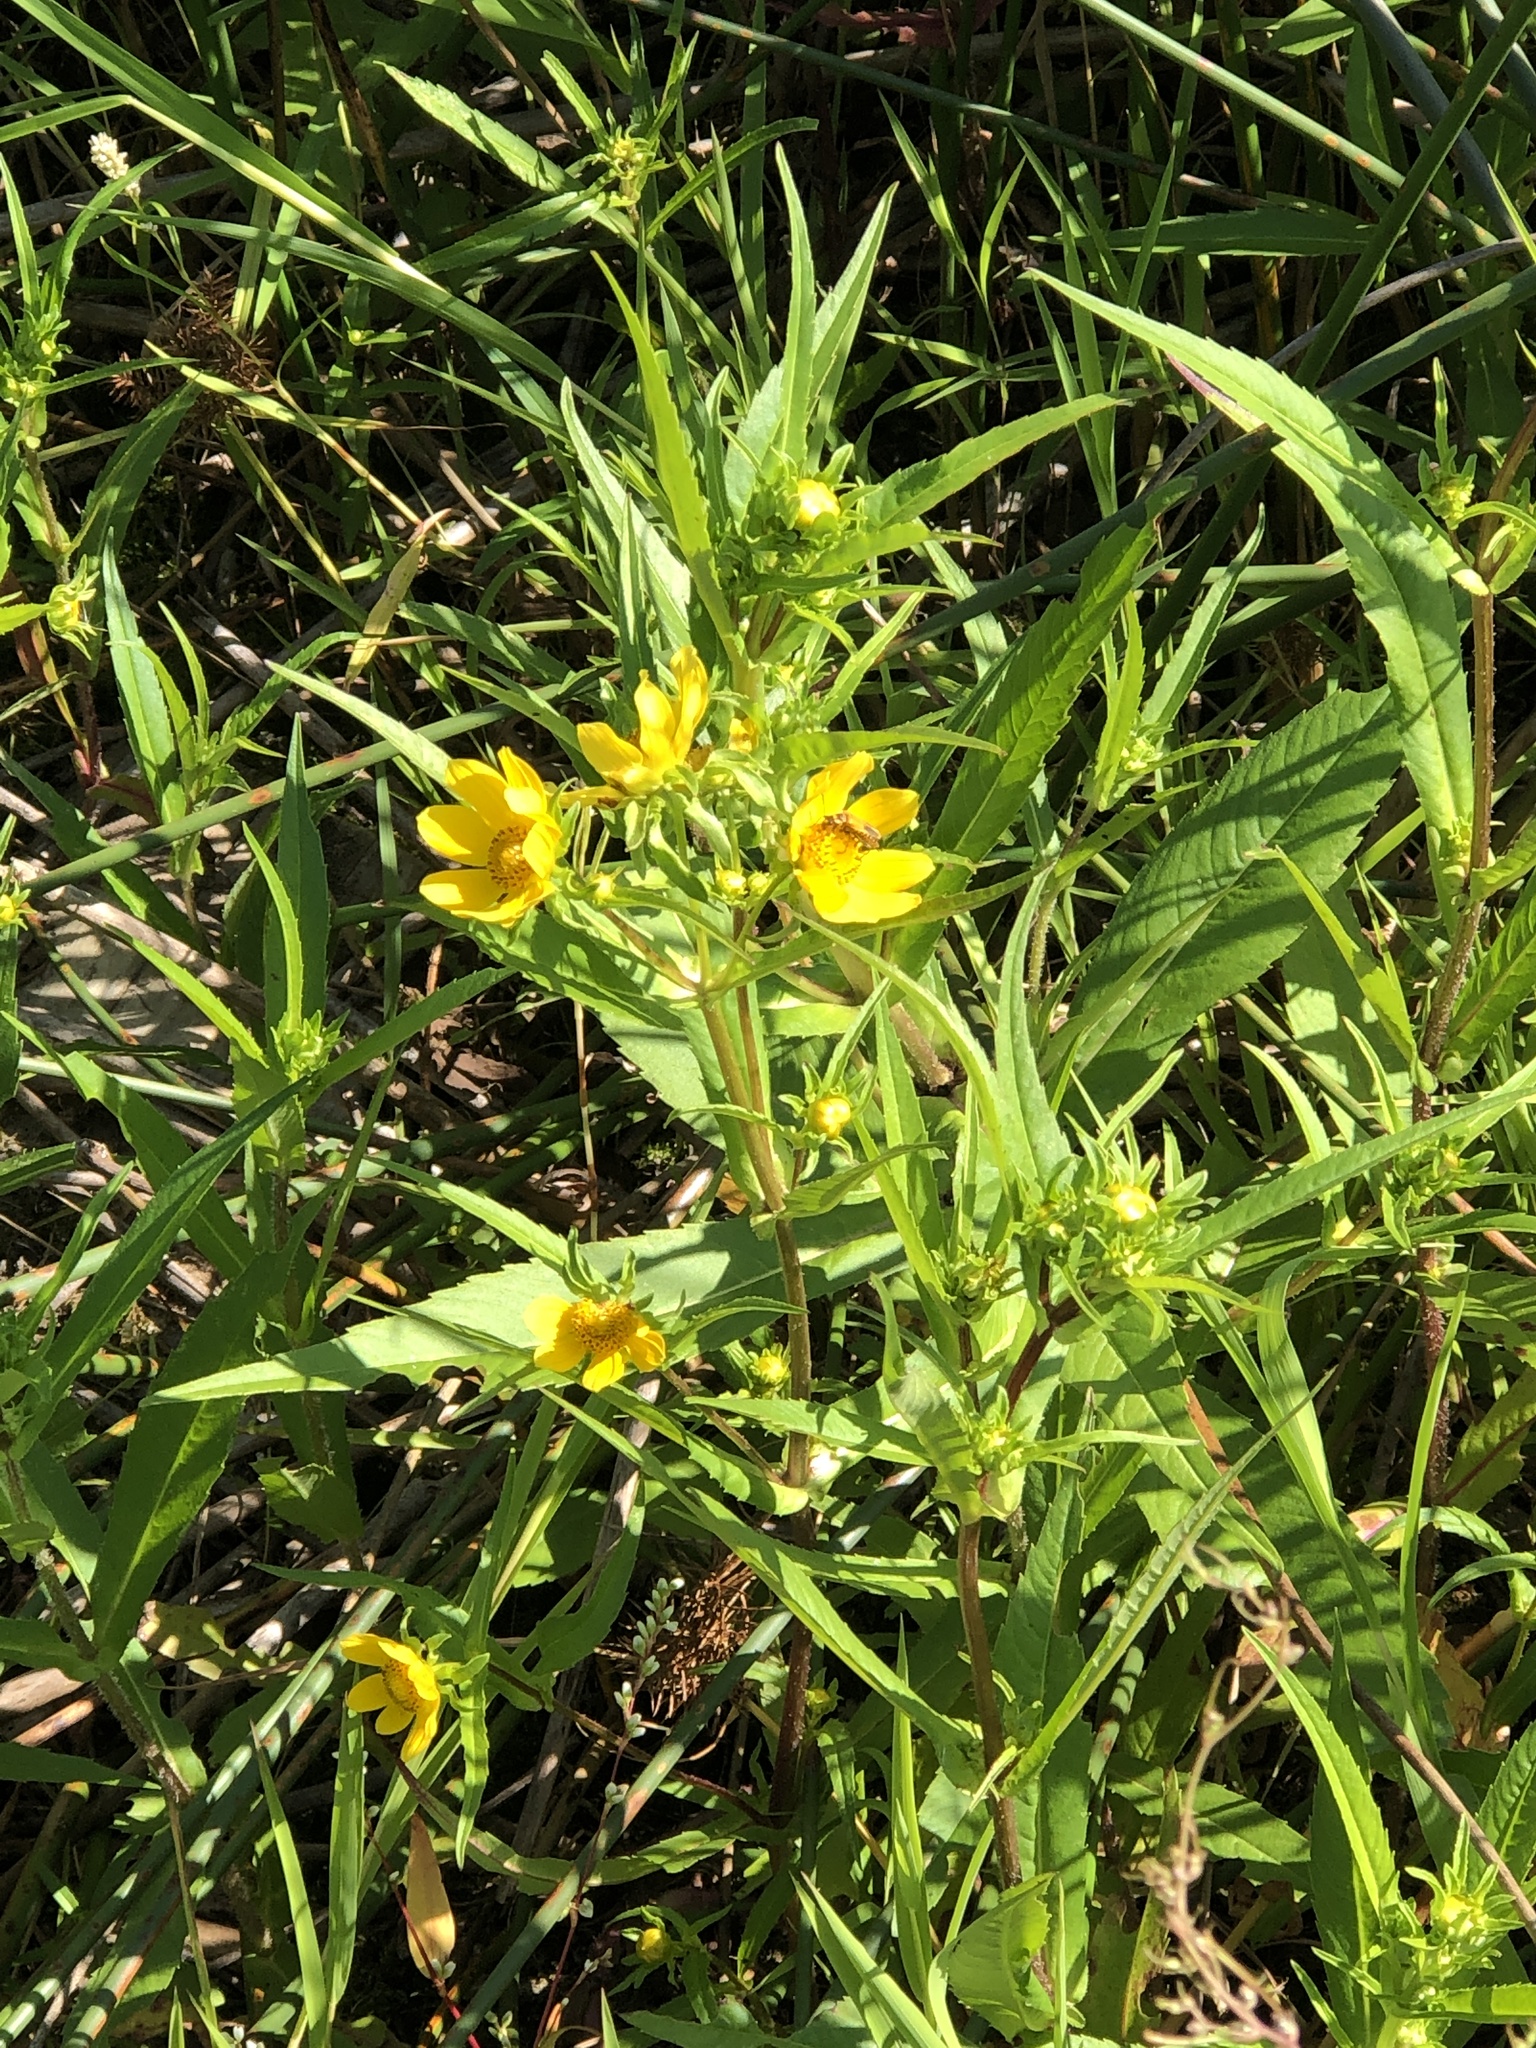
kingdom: Plantae
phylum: Tracheophyta
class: Magnoliopsida
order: Asterales
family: Asteraceae
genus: Bidens
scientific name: Bidens cernua
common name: Nodding bur-marigold
